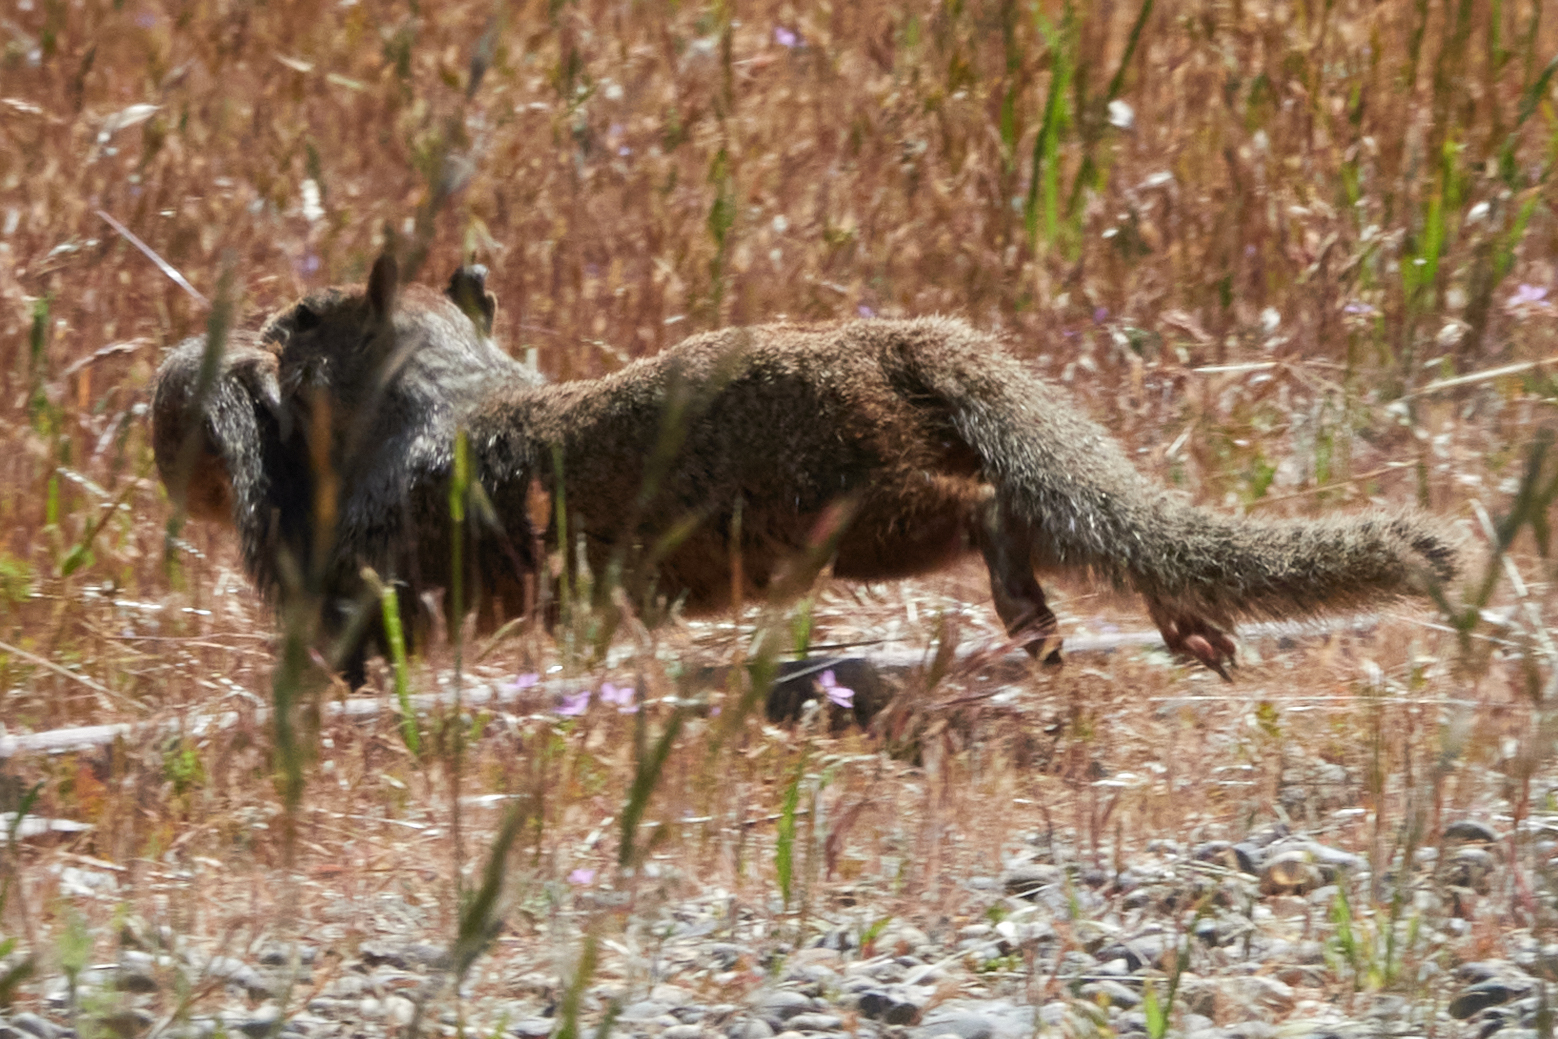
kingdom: Animalia
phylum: Chordata
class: Mammalia
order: Rodentia
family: Sciuridae
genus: Otospermophilus
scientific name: Otospermophilus beecheyi
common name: California ground squirrel
